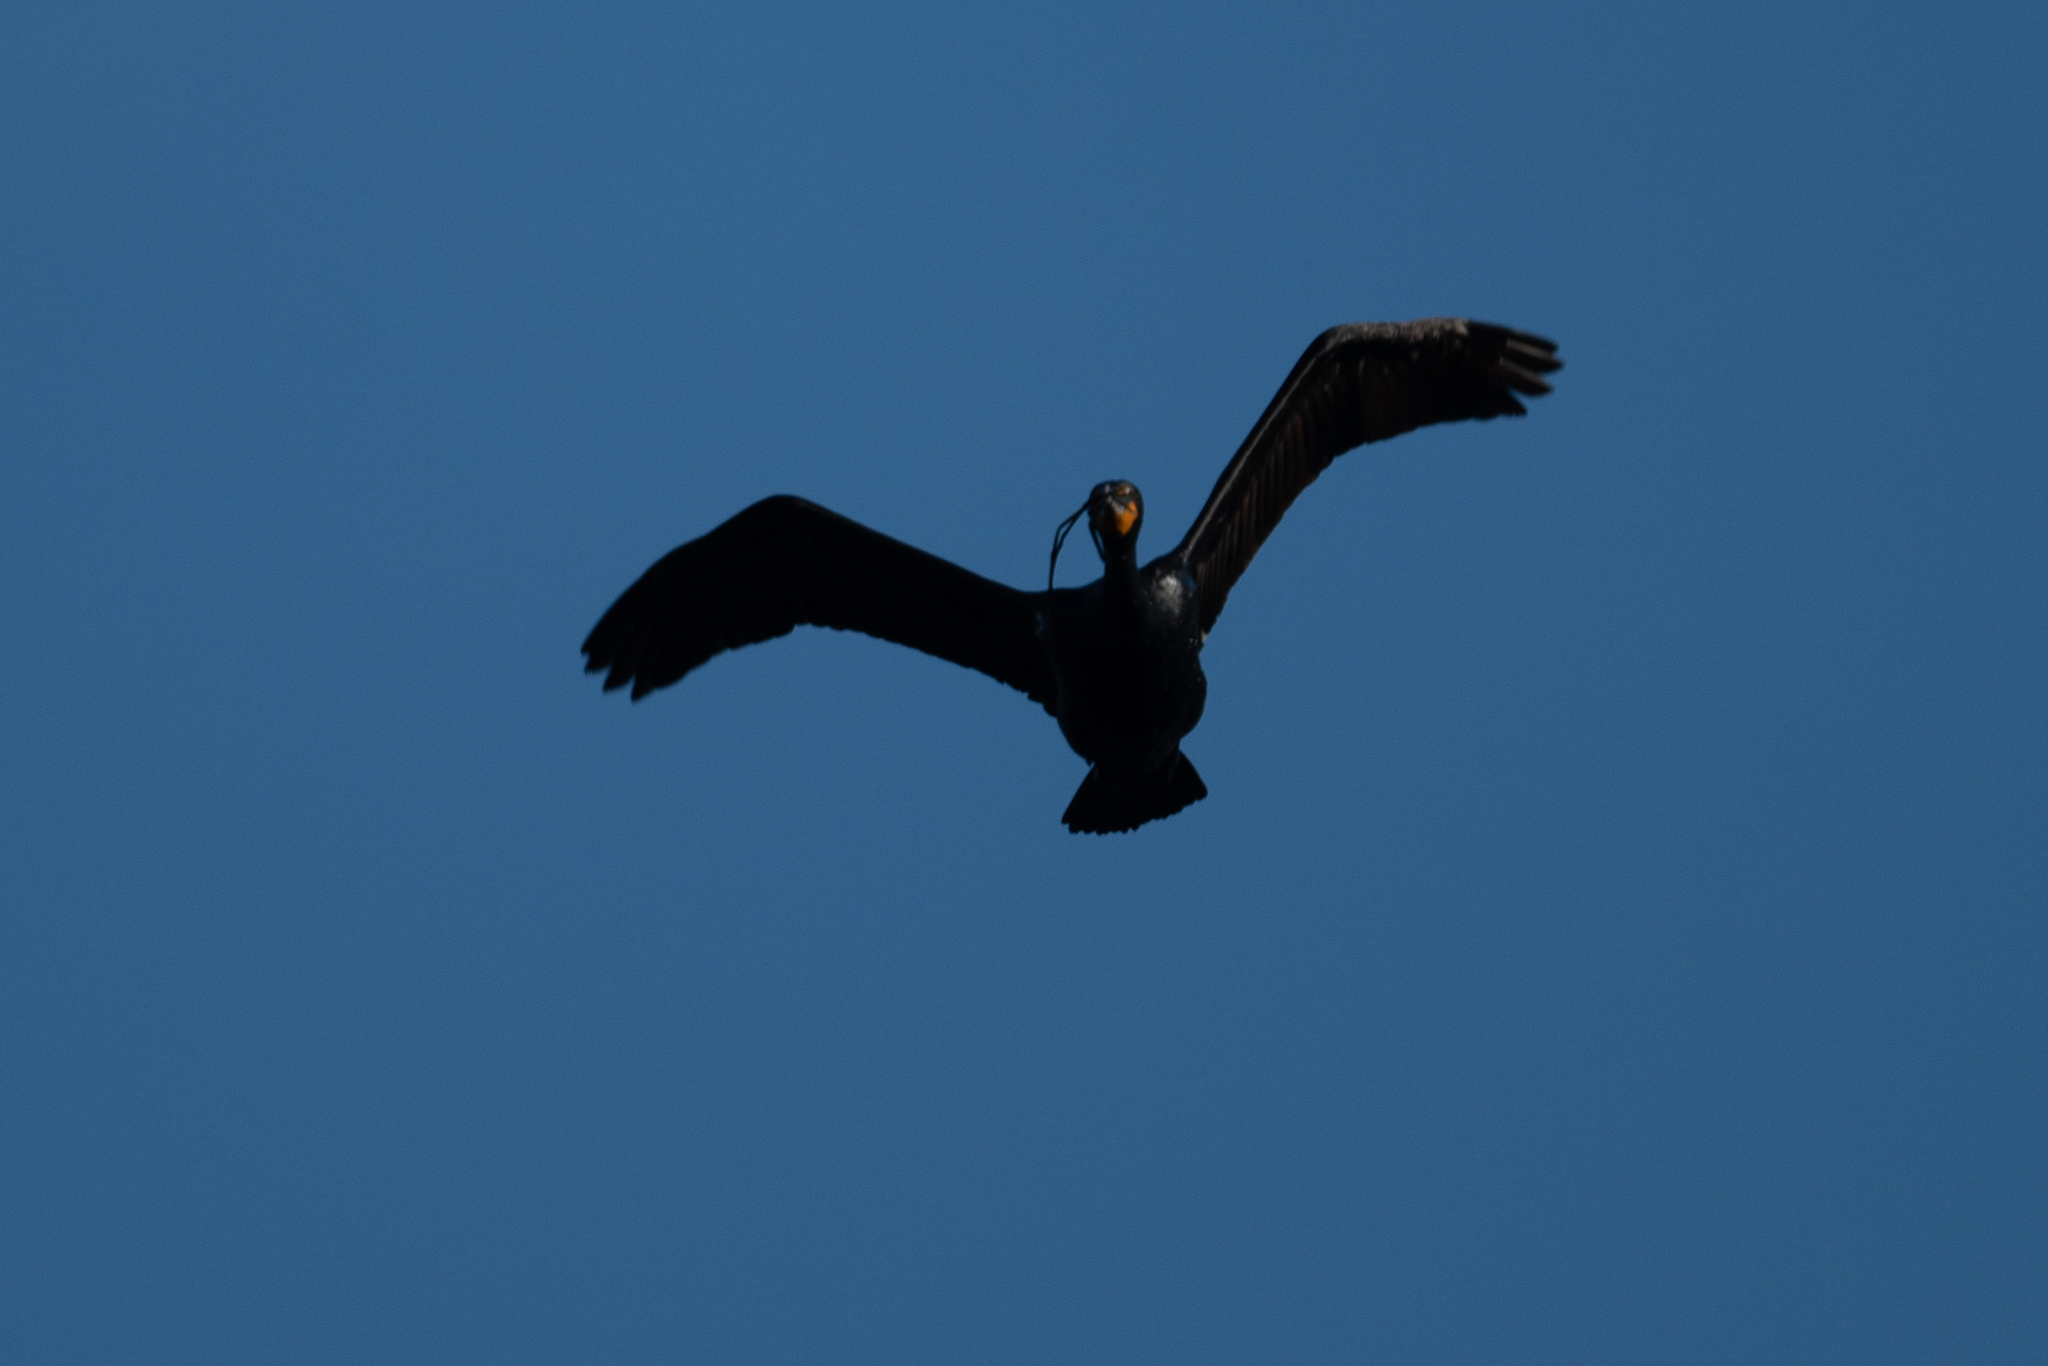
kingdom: Animalia
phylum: Chordata
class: Aves
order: Suliformes
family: Phalacrocoracidae
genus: Phalacrocorax
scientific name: Phalacrocorax auritus
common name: Double-crested cormorant
